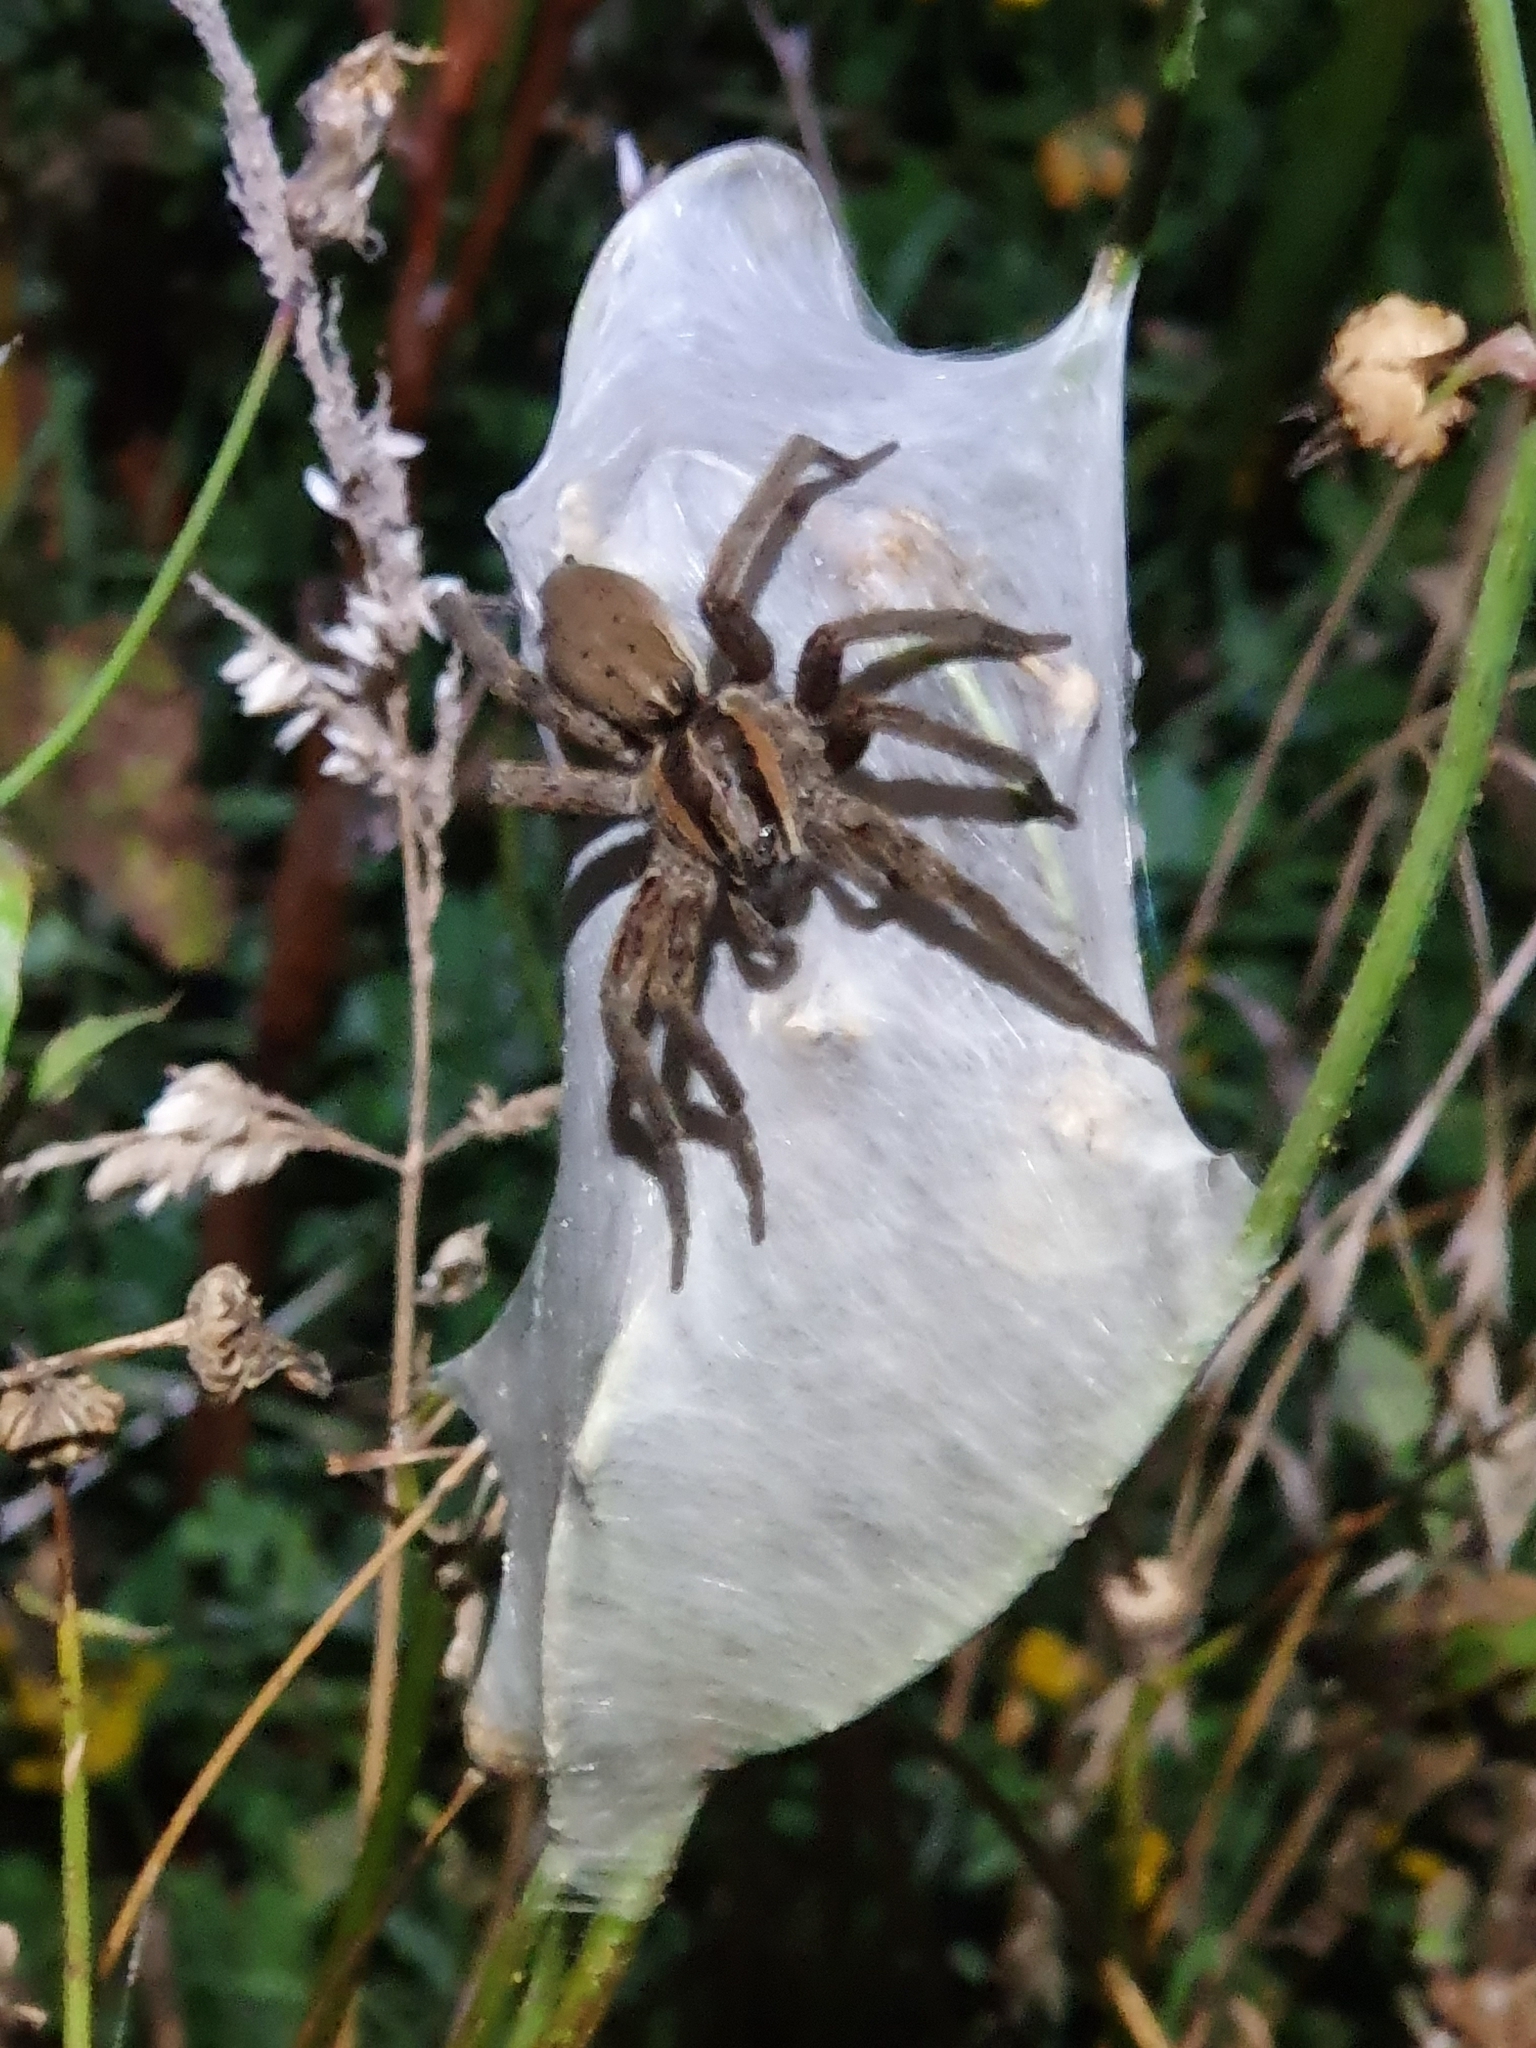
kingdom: Animalia
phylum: Arthropoda
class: Arachnida
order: Araneae
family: Pisauridae
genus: Dolomedes
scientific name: Dolomedes minor
